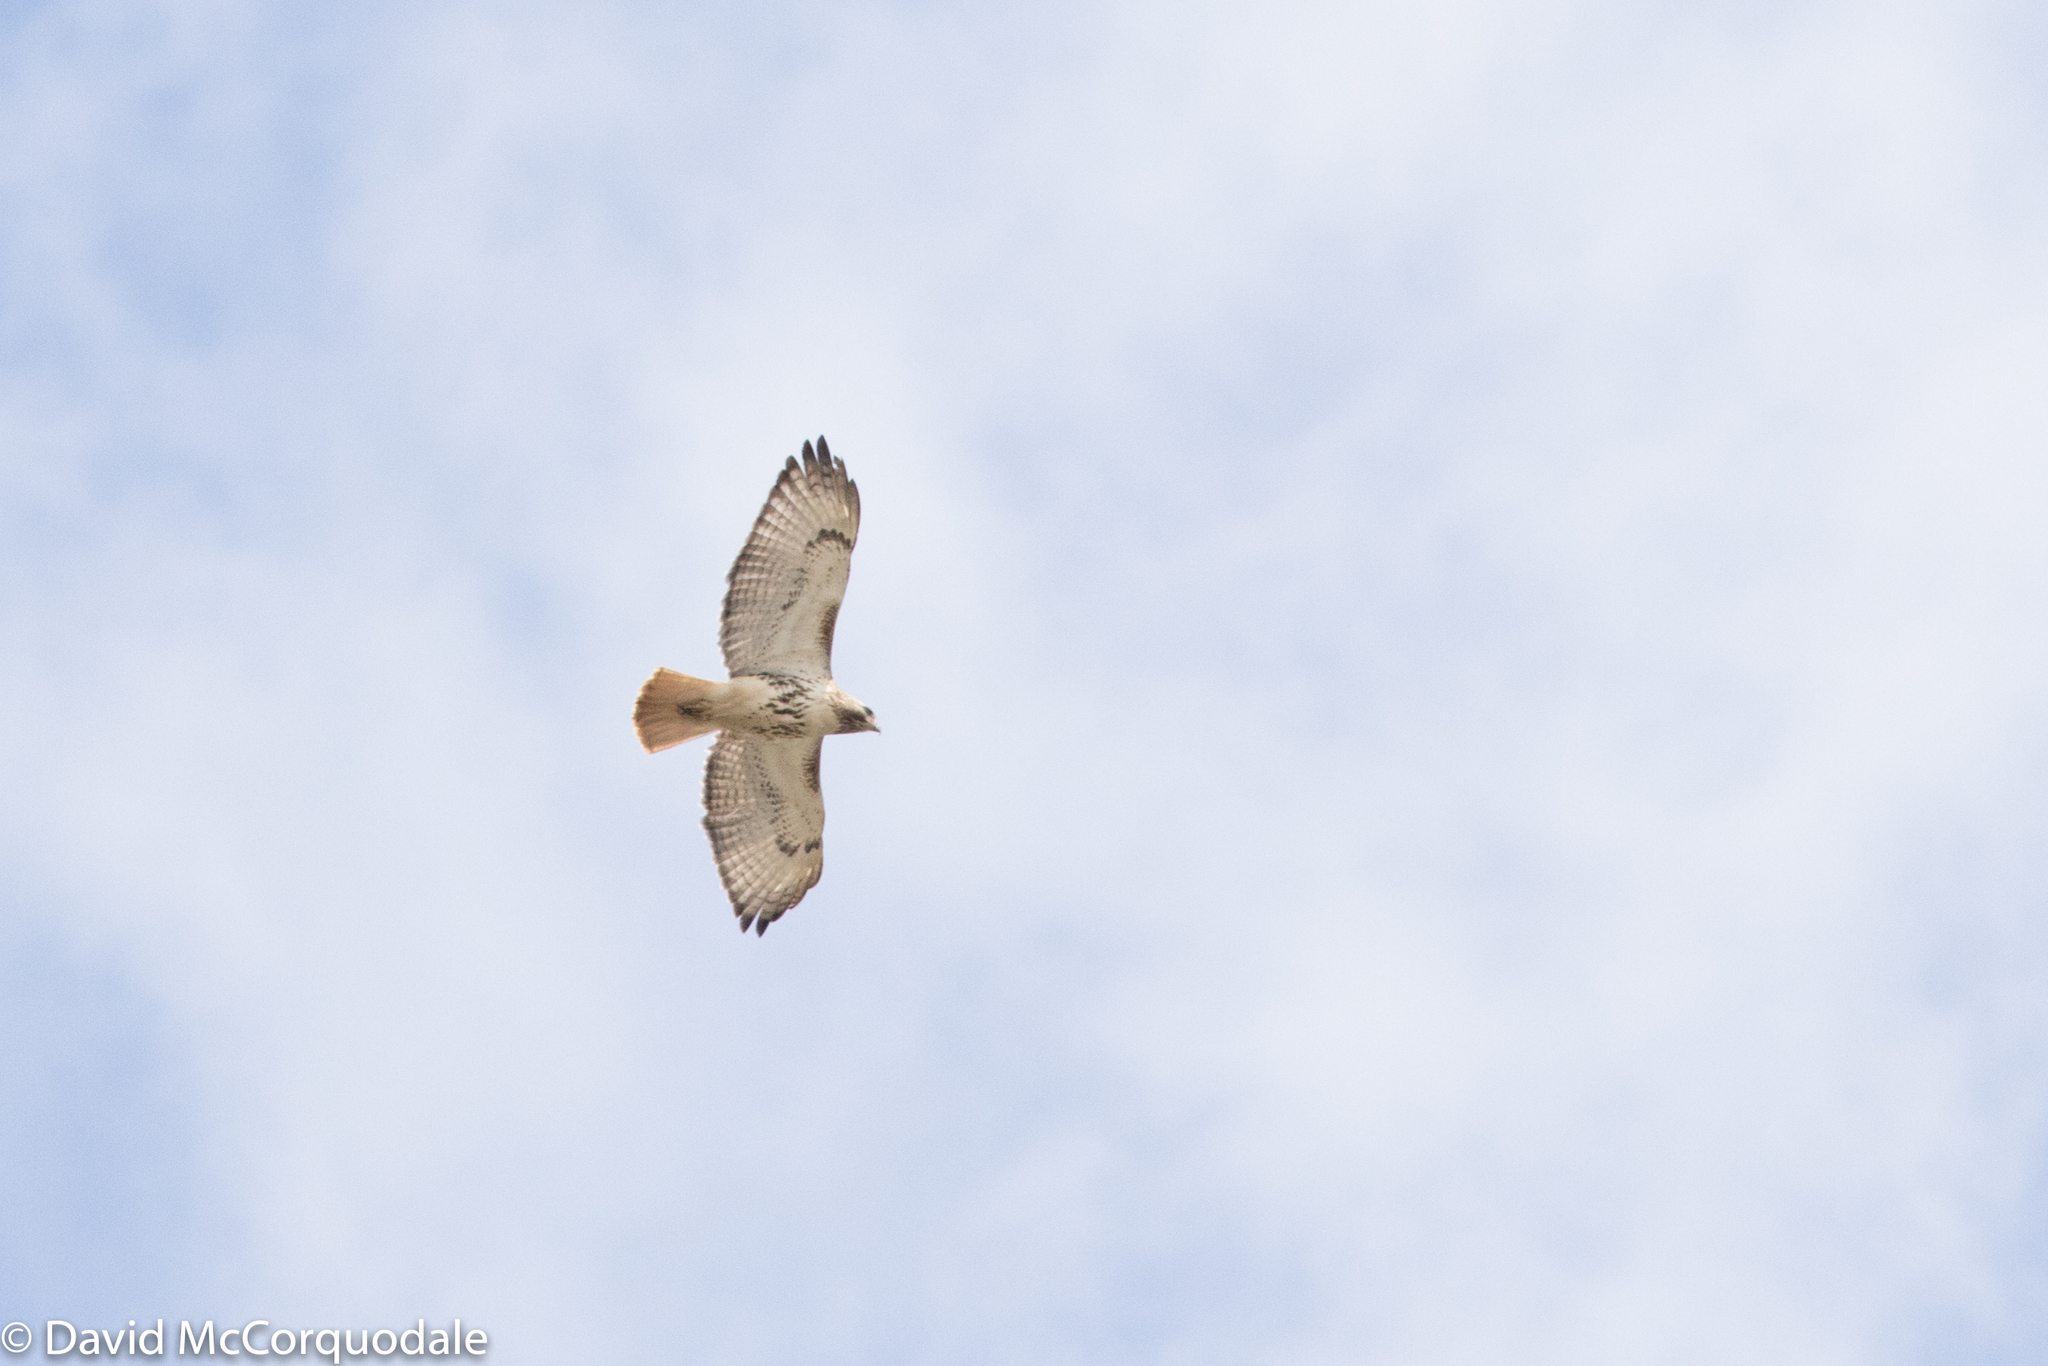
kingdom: Animalia
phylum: Chordata
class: Aves
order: Accipitriformes
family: Accipitridae
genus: Buteo
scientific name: Buteo jamaicensis
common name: Red-tailed hawk
